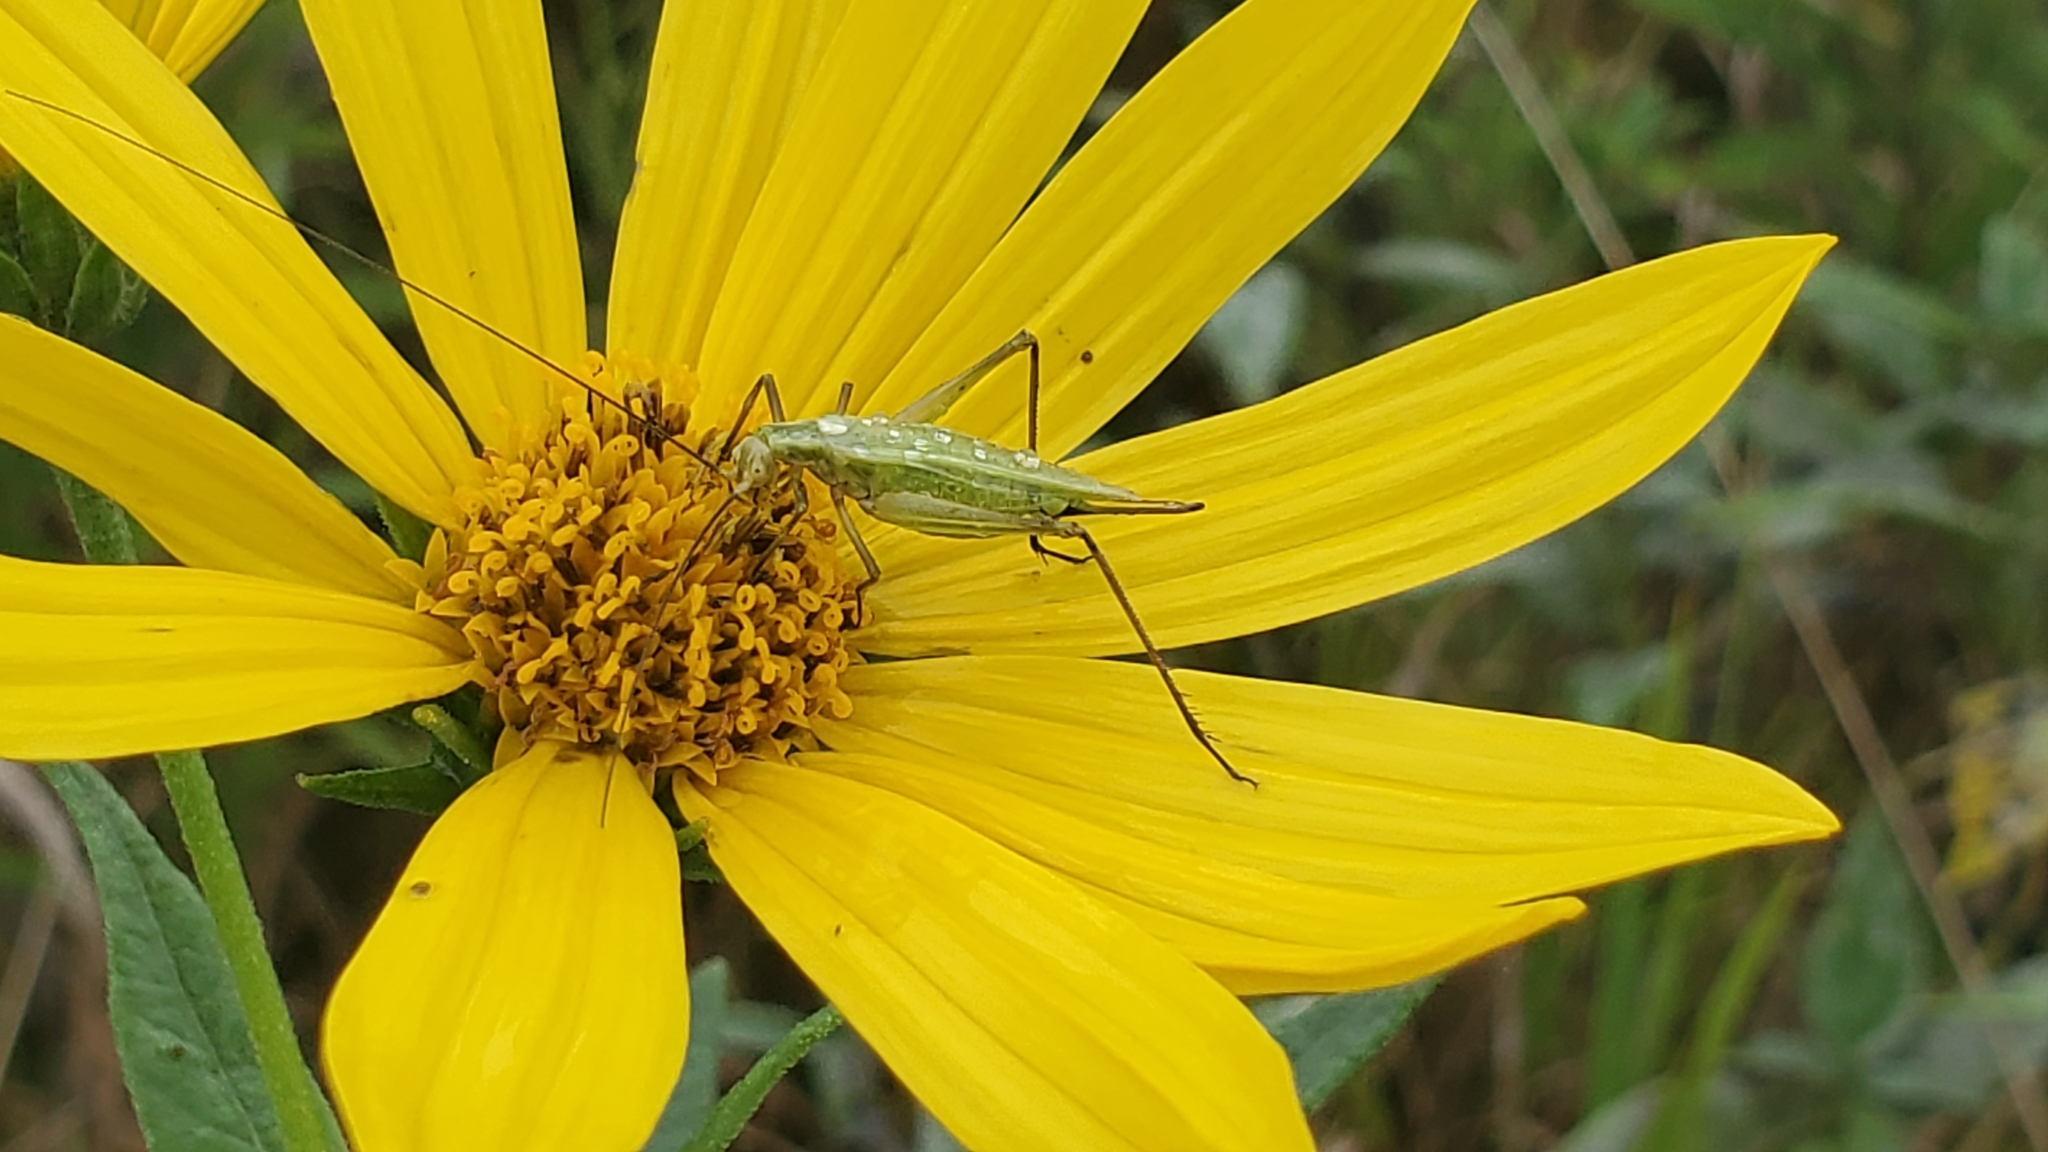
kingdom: Animalia
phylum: Arthropoda
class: Insecta
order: Orthoptera
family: Gryllidae
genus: Oecanthus
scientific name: Oecanthus forbesi
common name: Forbes’s tree cricket
